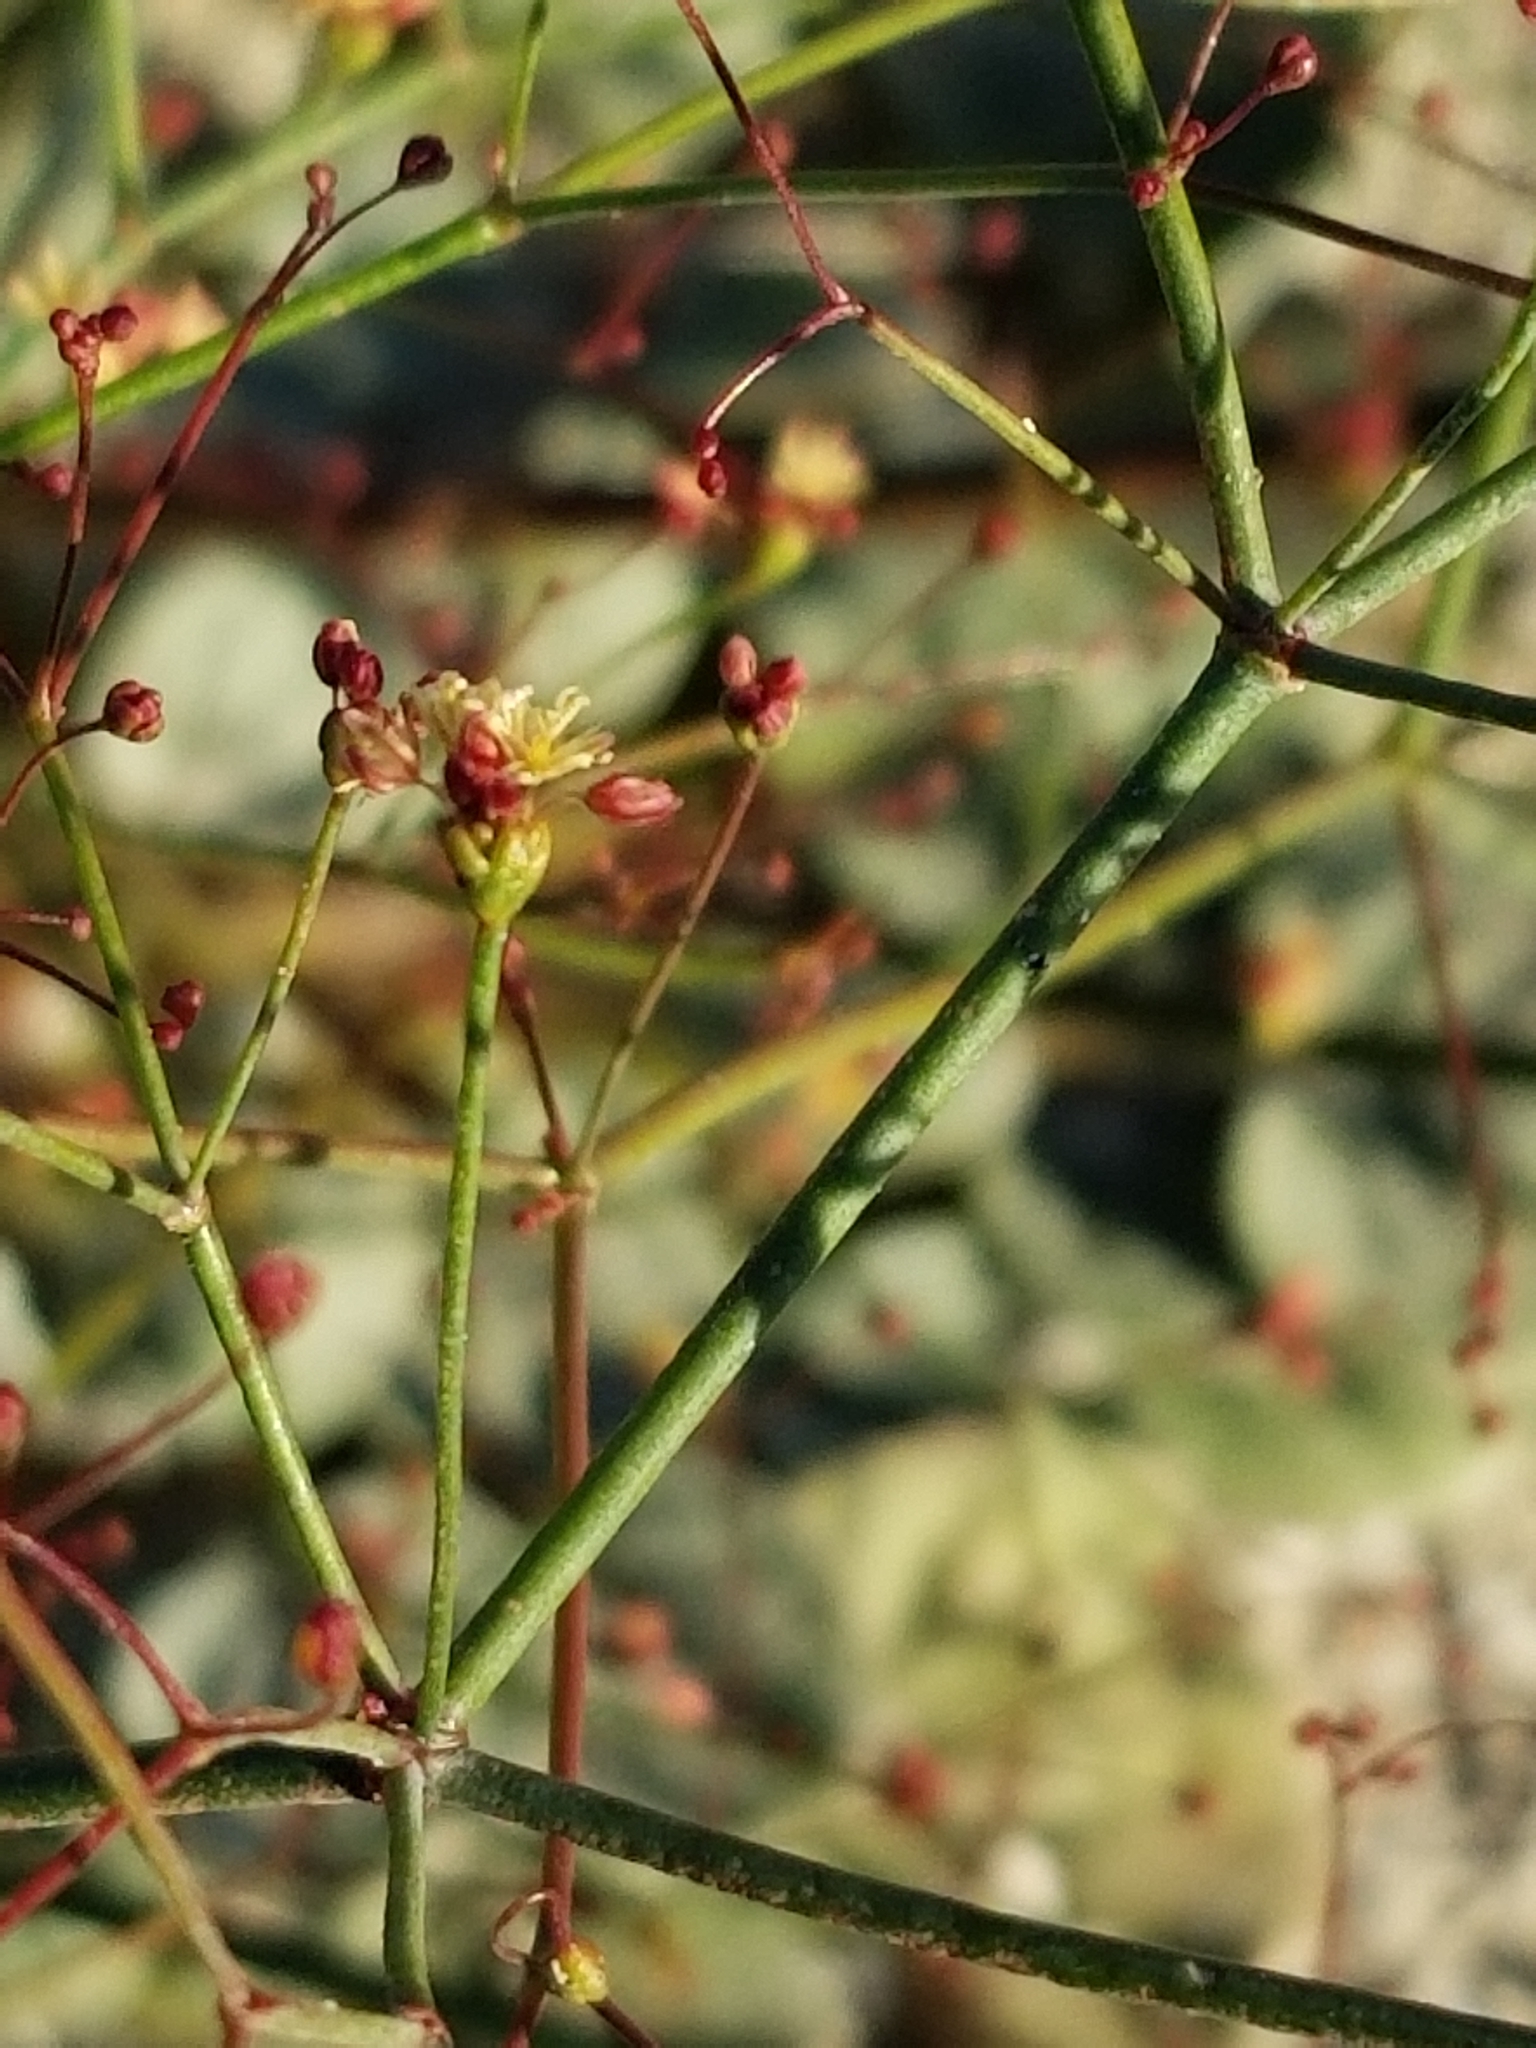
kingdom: Plantae
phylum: Tracheophyta
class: Magnoliopsida
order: Caryophyllales
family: Polygonaceae
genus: Eriogonum
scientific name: Eriogonum thomasii
